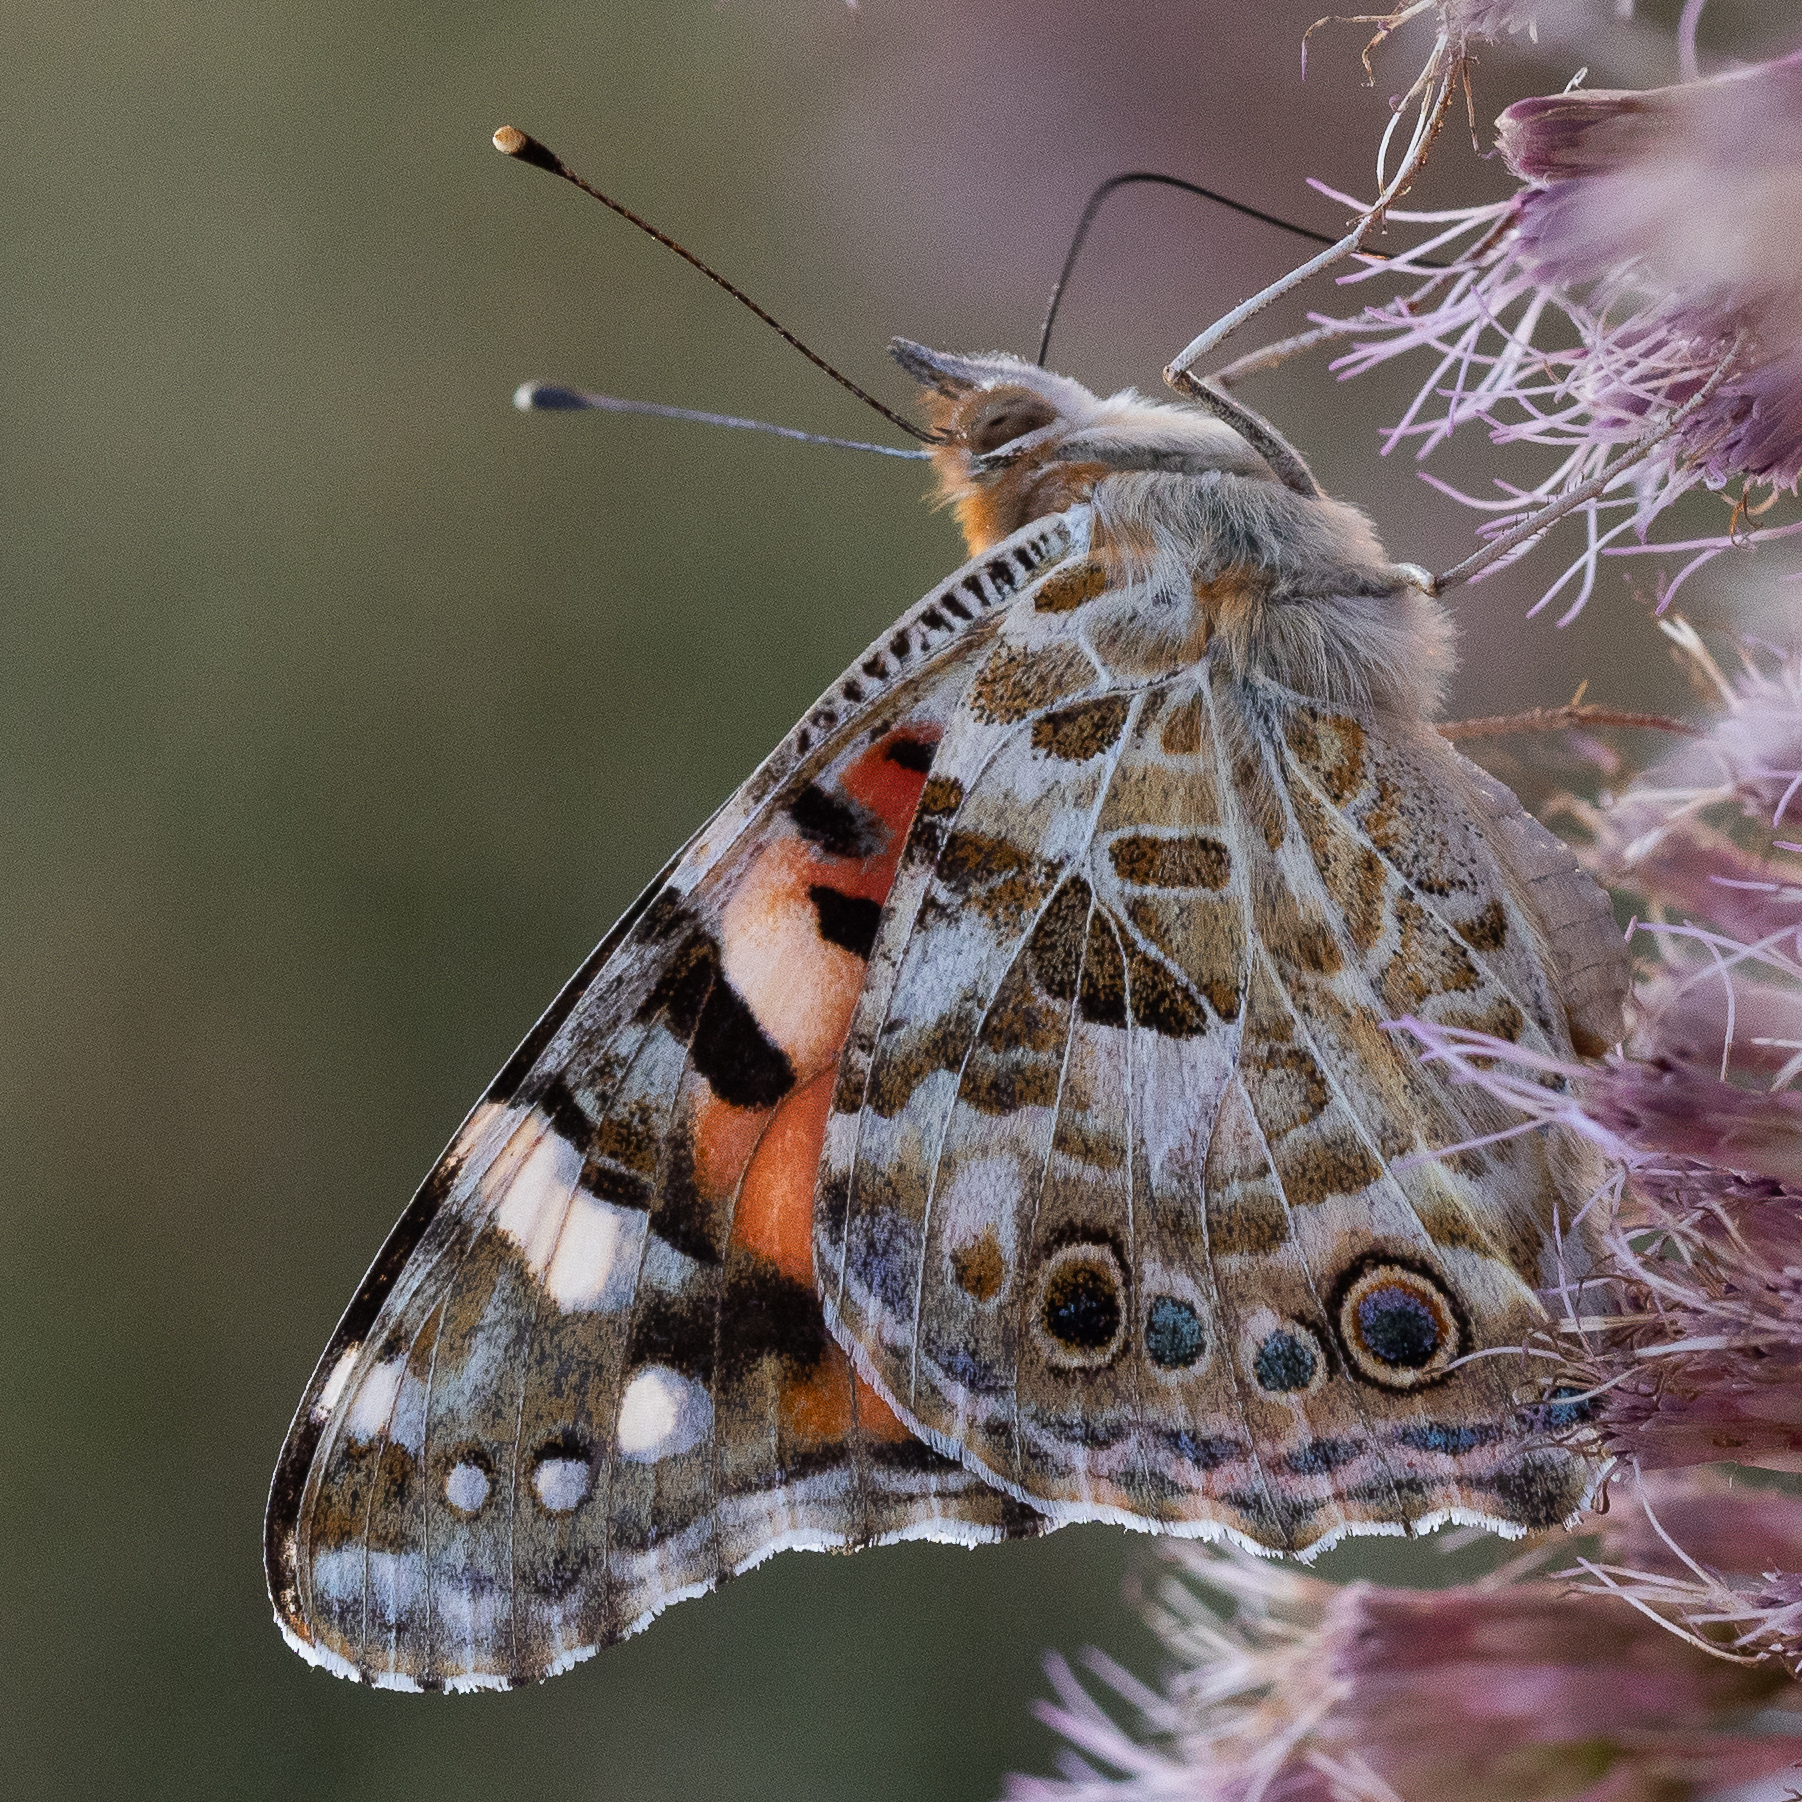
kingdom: Animalia
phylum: Arthropoda
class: Insecta
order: Lepidoptera
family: Nymphalidae
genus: Vanessa
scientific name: Vanessa cardui
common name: Painted lady
